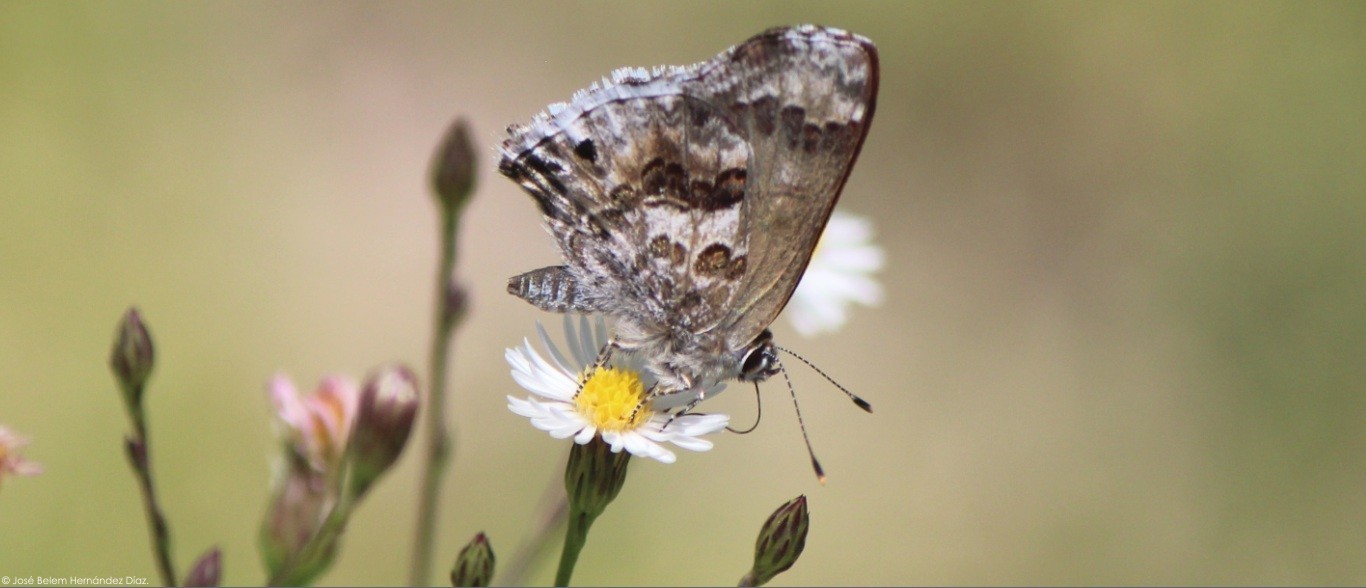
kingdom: Animalia
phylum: Arthropoda
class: Insecta
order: Lepidoptera
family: Lycaenidae
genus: Thecla
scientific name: Thecla cestri
